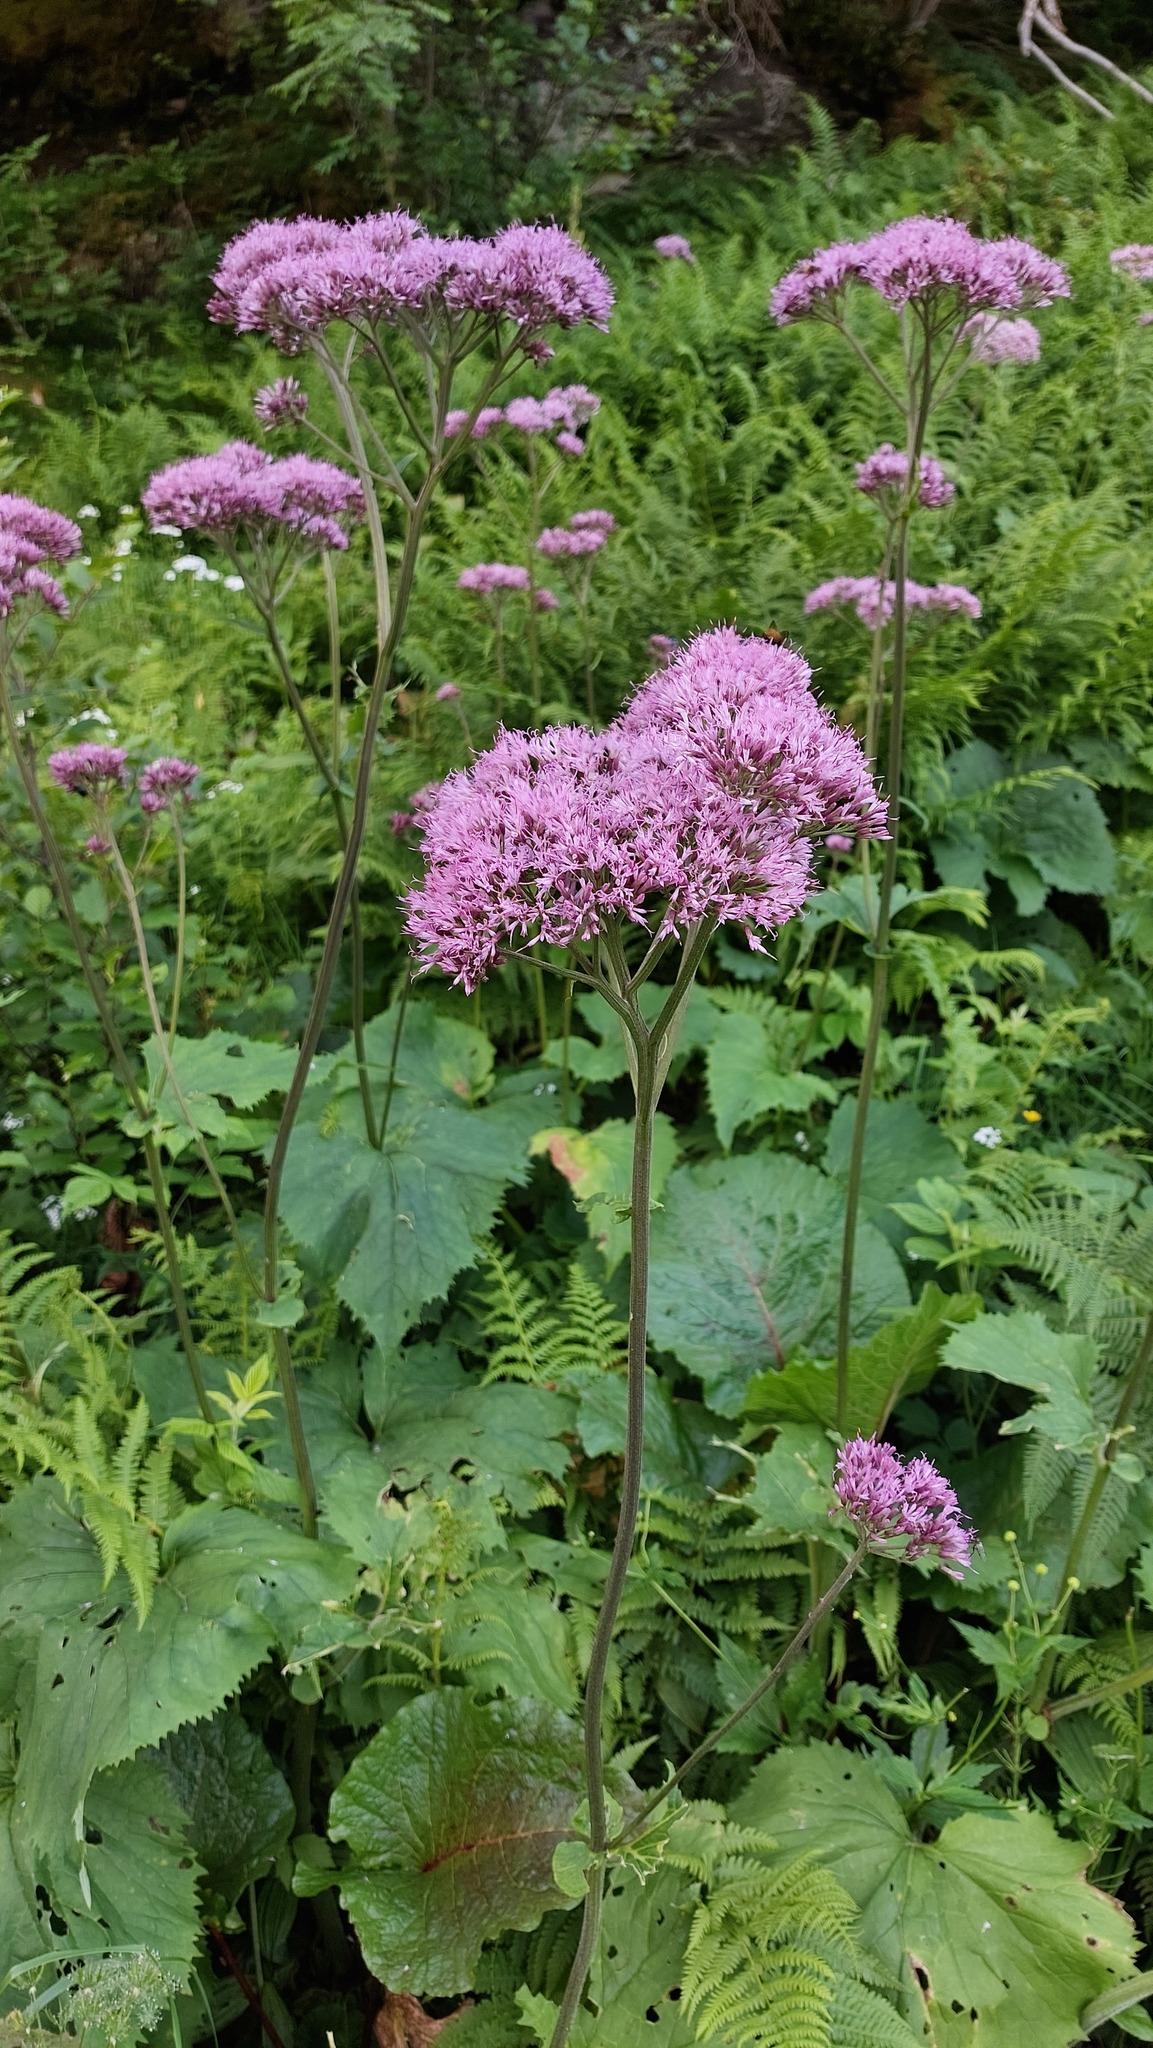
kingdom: Plantae
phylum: Tracheophyta
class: Magnoliopsida
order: Asterales
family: Asteraceae
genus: Adenostyles
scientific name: Adenostyles alliariae
